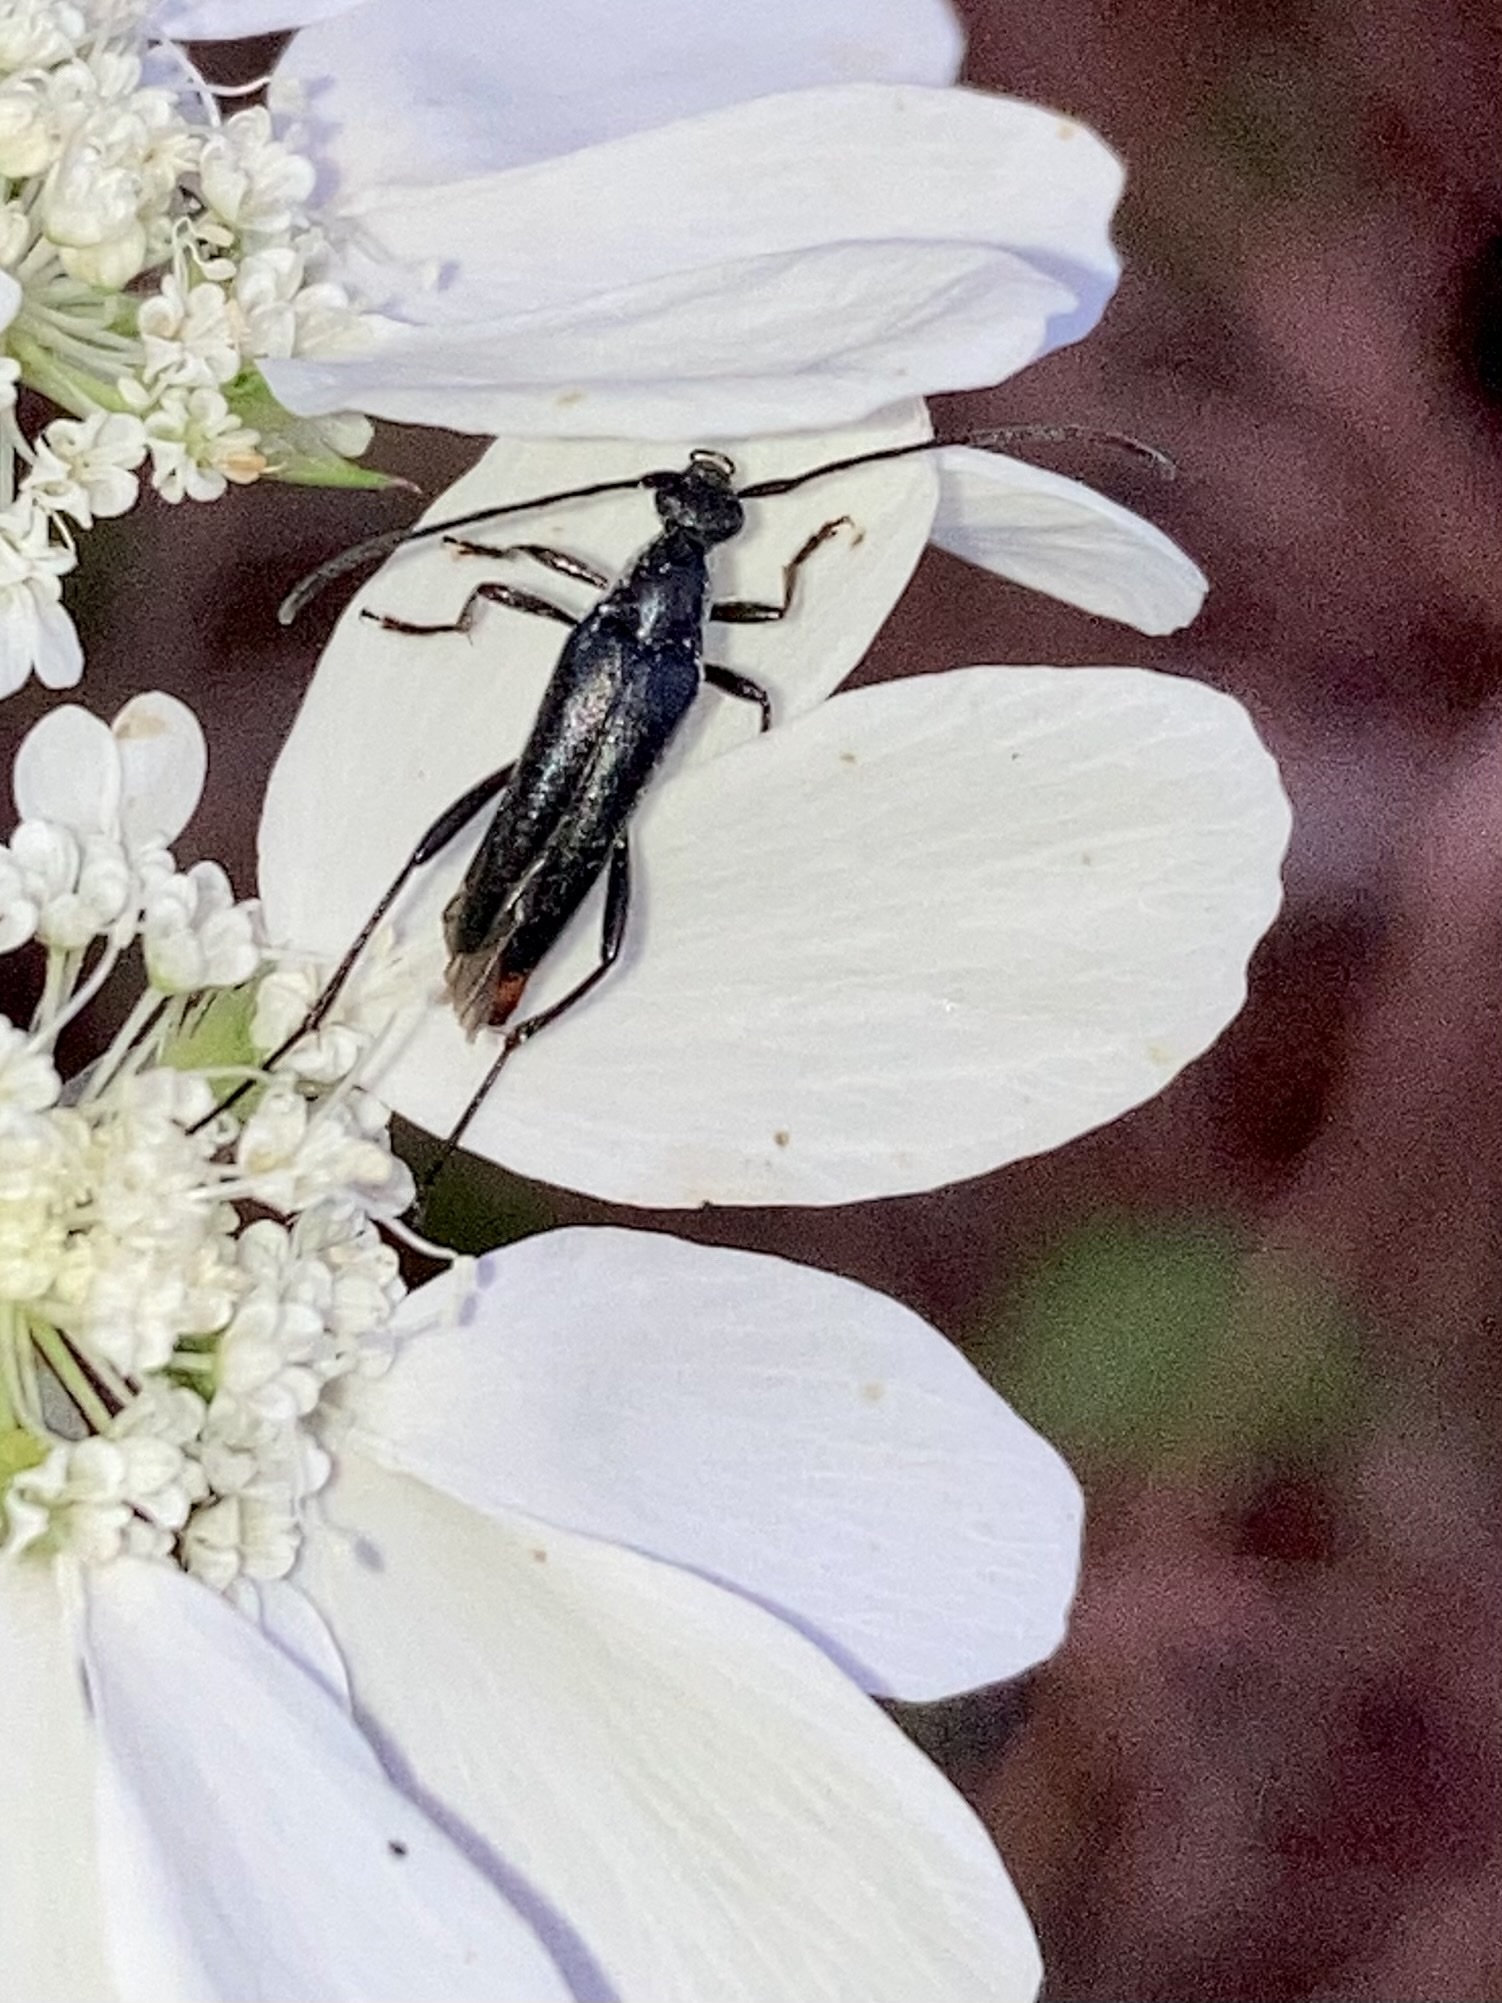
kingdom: Animalia
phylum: Arthropoda
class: Insecta
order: Coleoptera
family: Cerambycidae
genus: Stenurella
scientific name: Stenurella nigra
